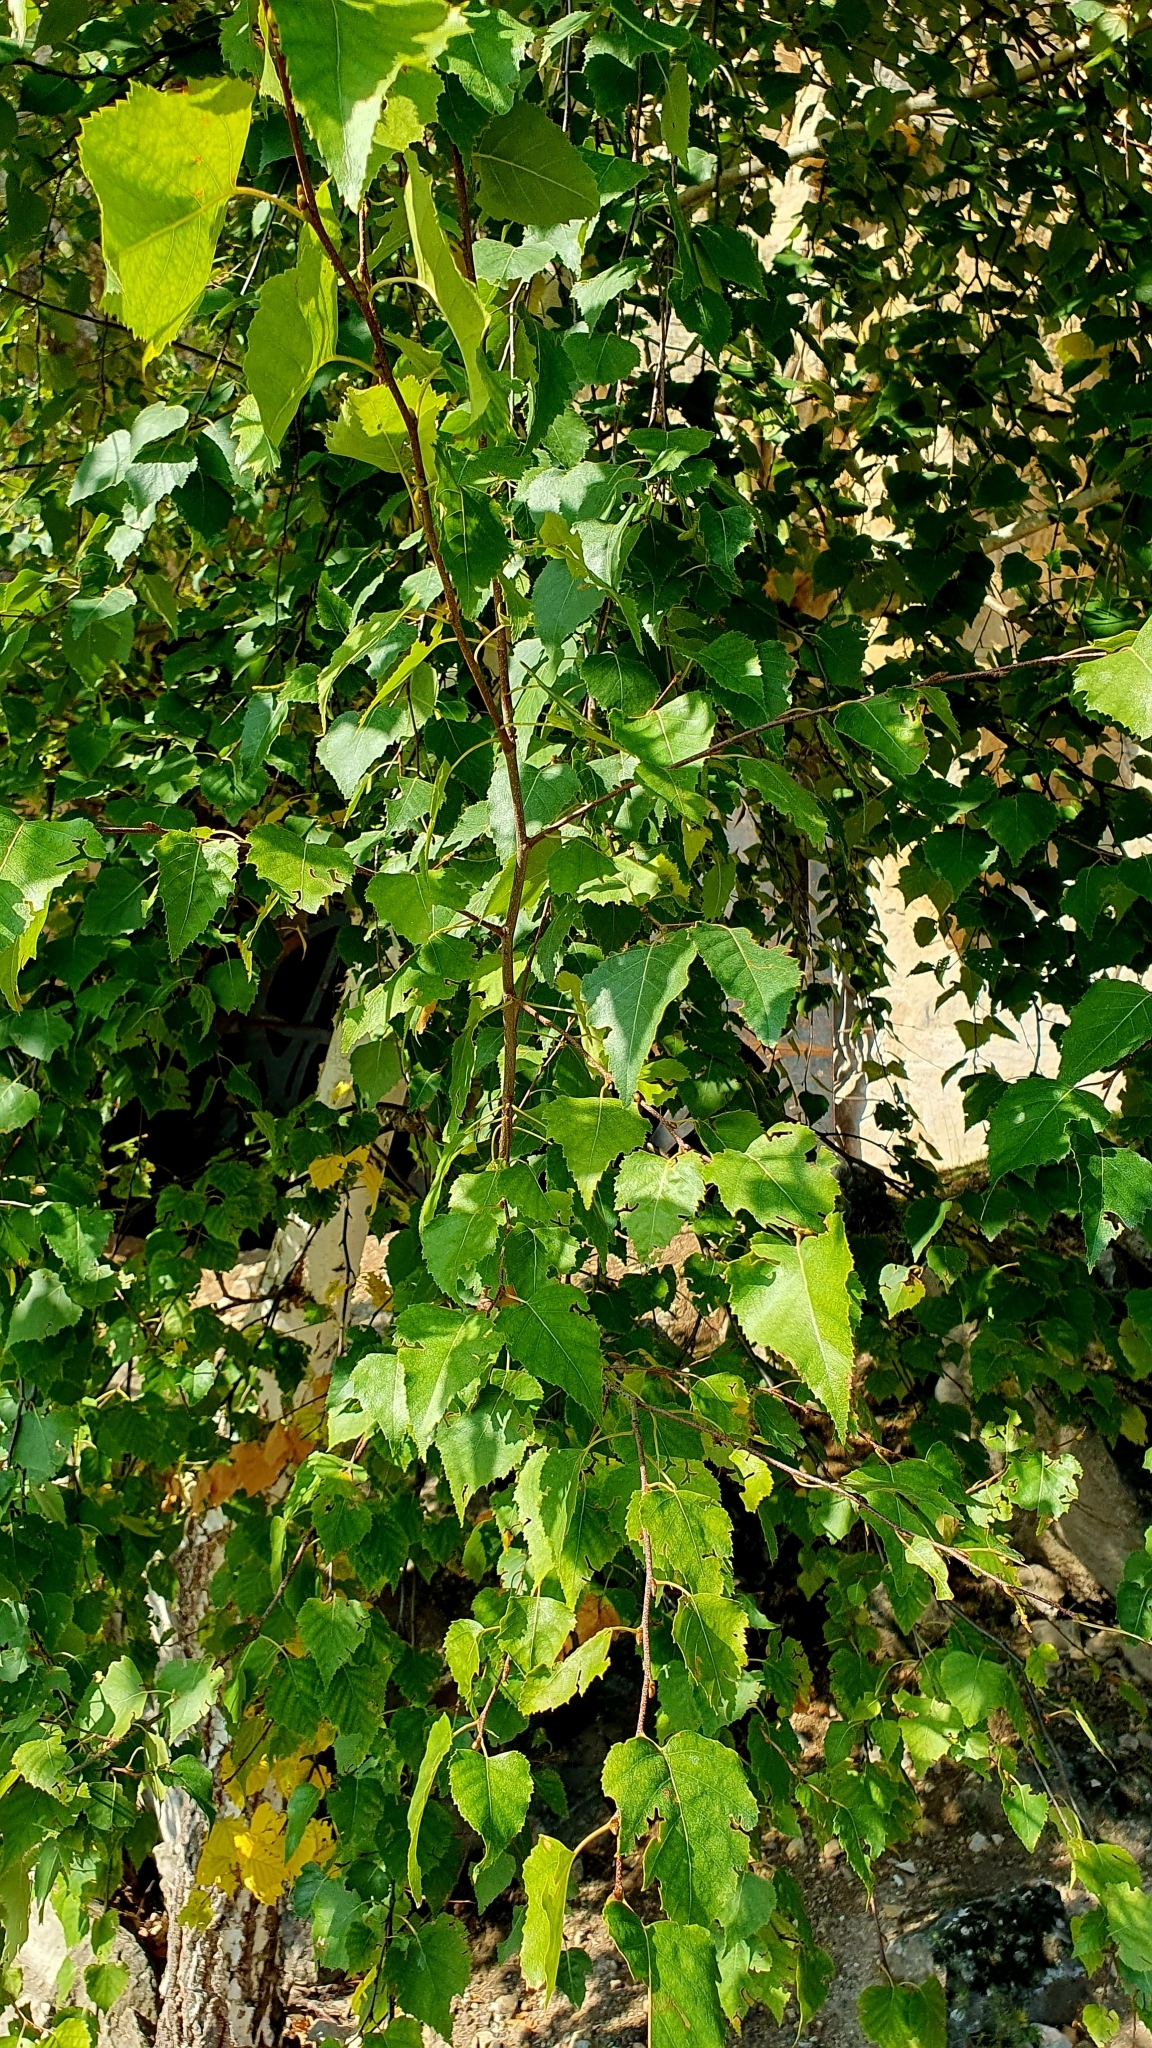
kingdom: Plantae
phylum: Tracheophyta
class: Magnoliopsida
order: Fagales
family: Betulaceae
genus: Betula
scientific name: Betula pendula
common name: Silver birch
